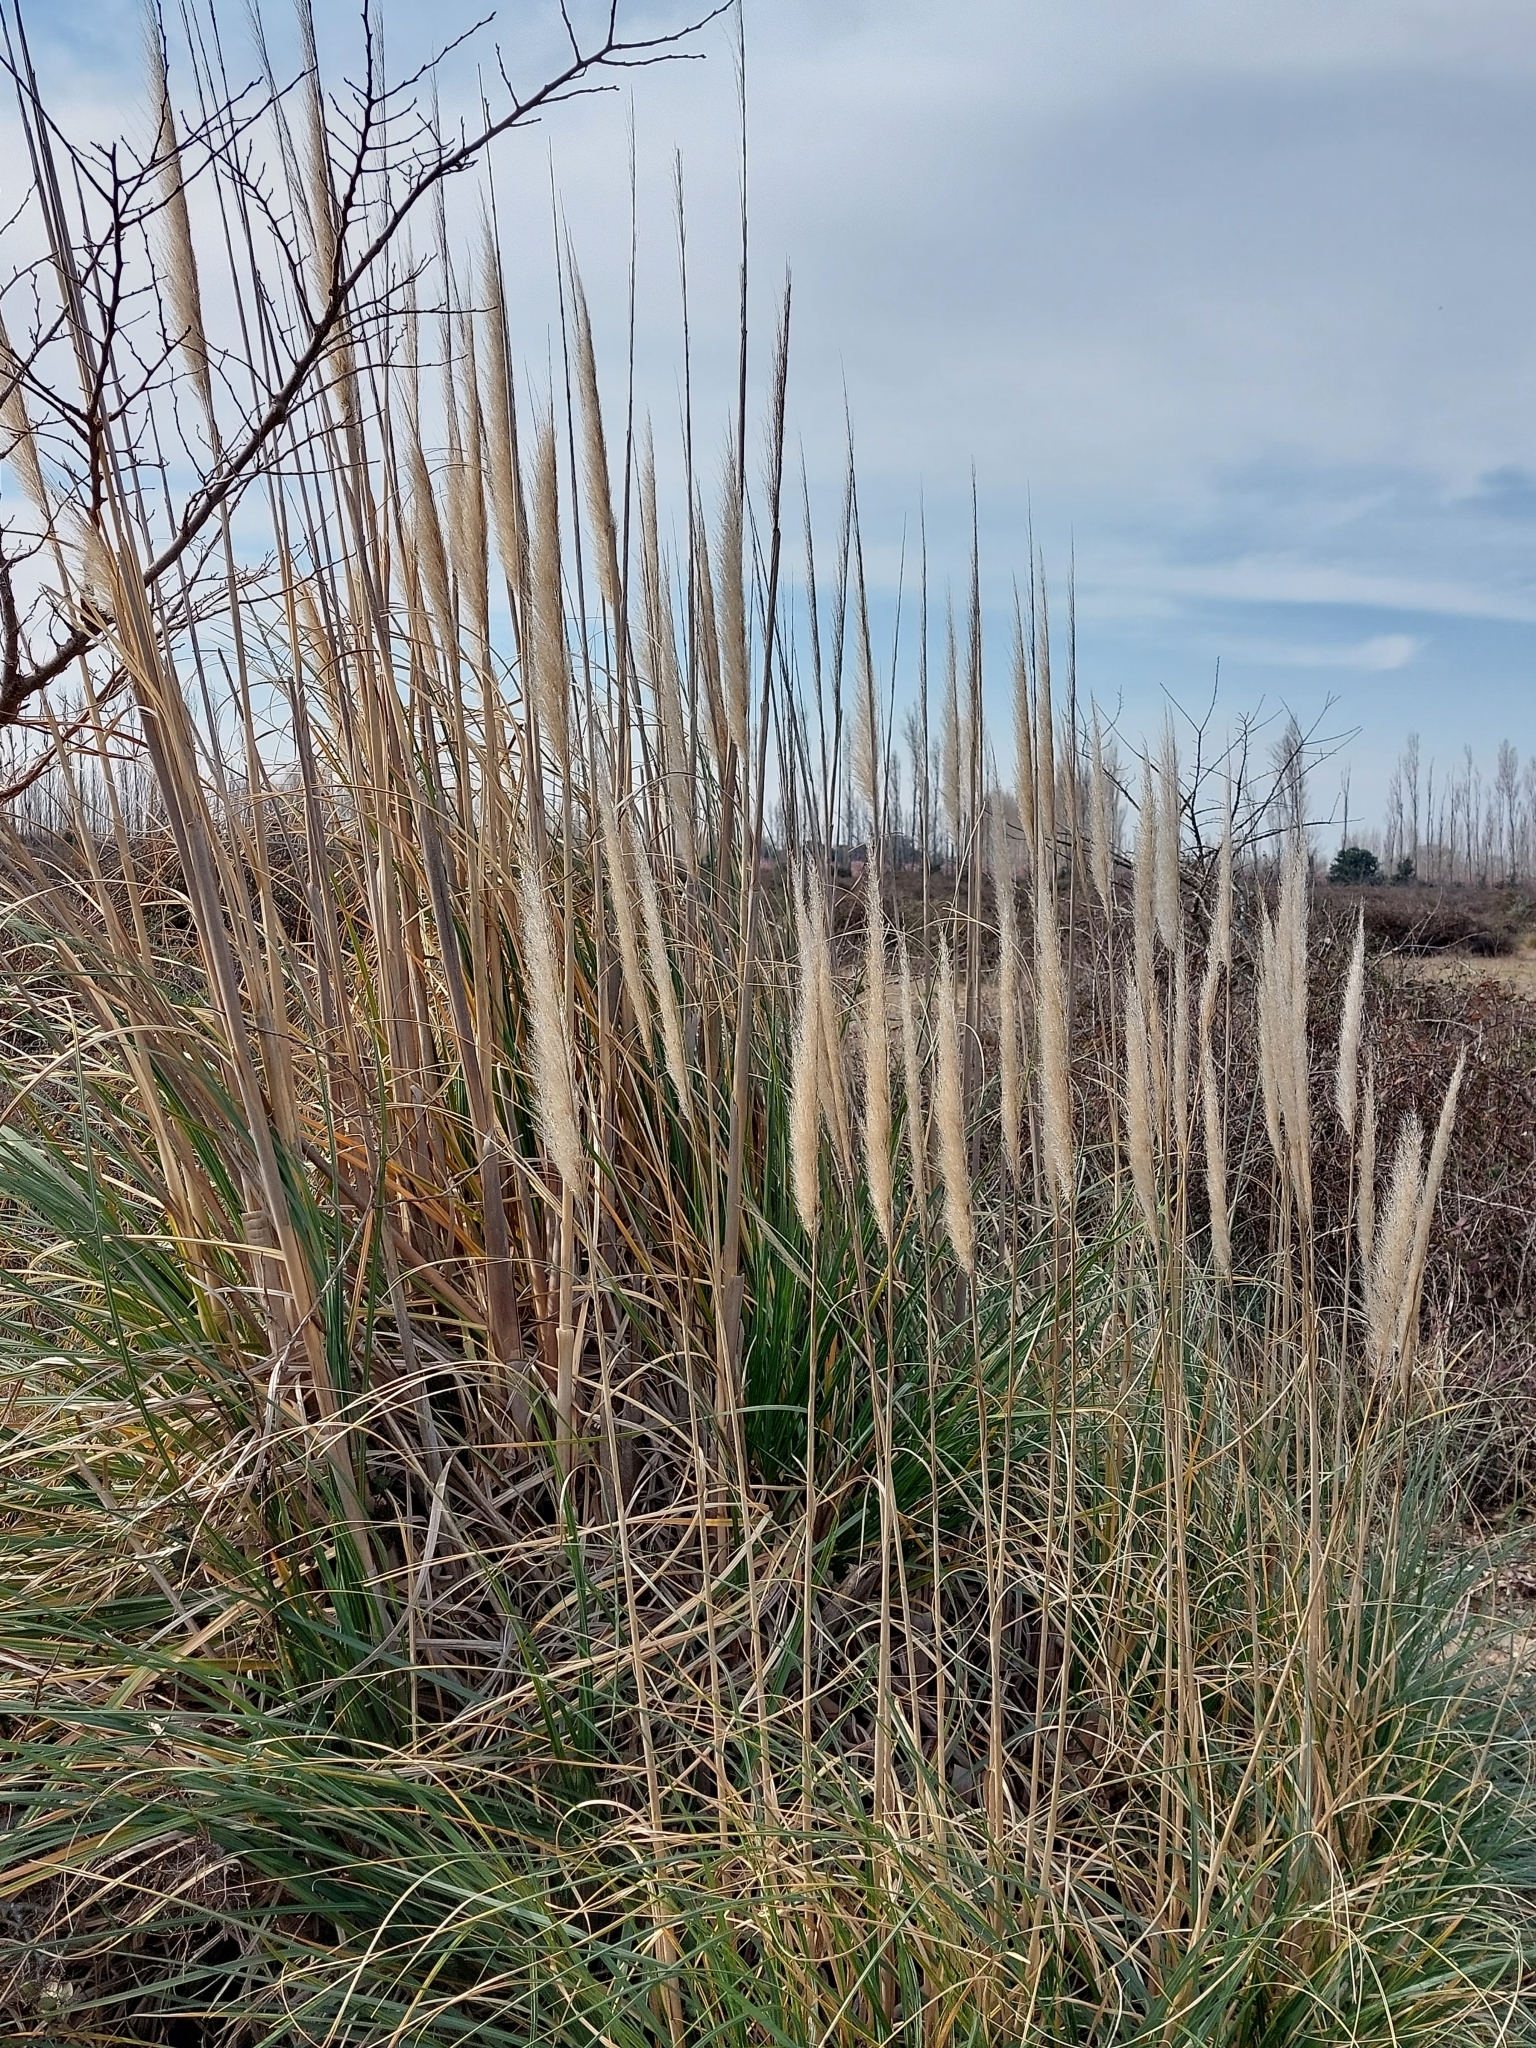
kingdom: Plantae
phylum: Tracheophyta
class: Liliopsida
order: Poales
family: Poaceae
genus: Cortaderia
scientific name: Cortaderia selloana
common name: Uruguayan pampas grass
